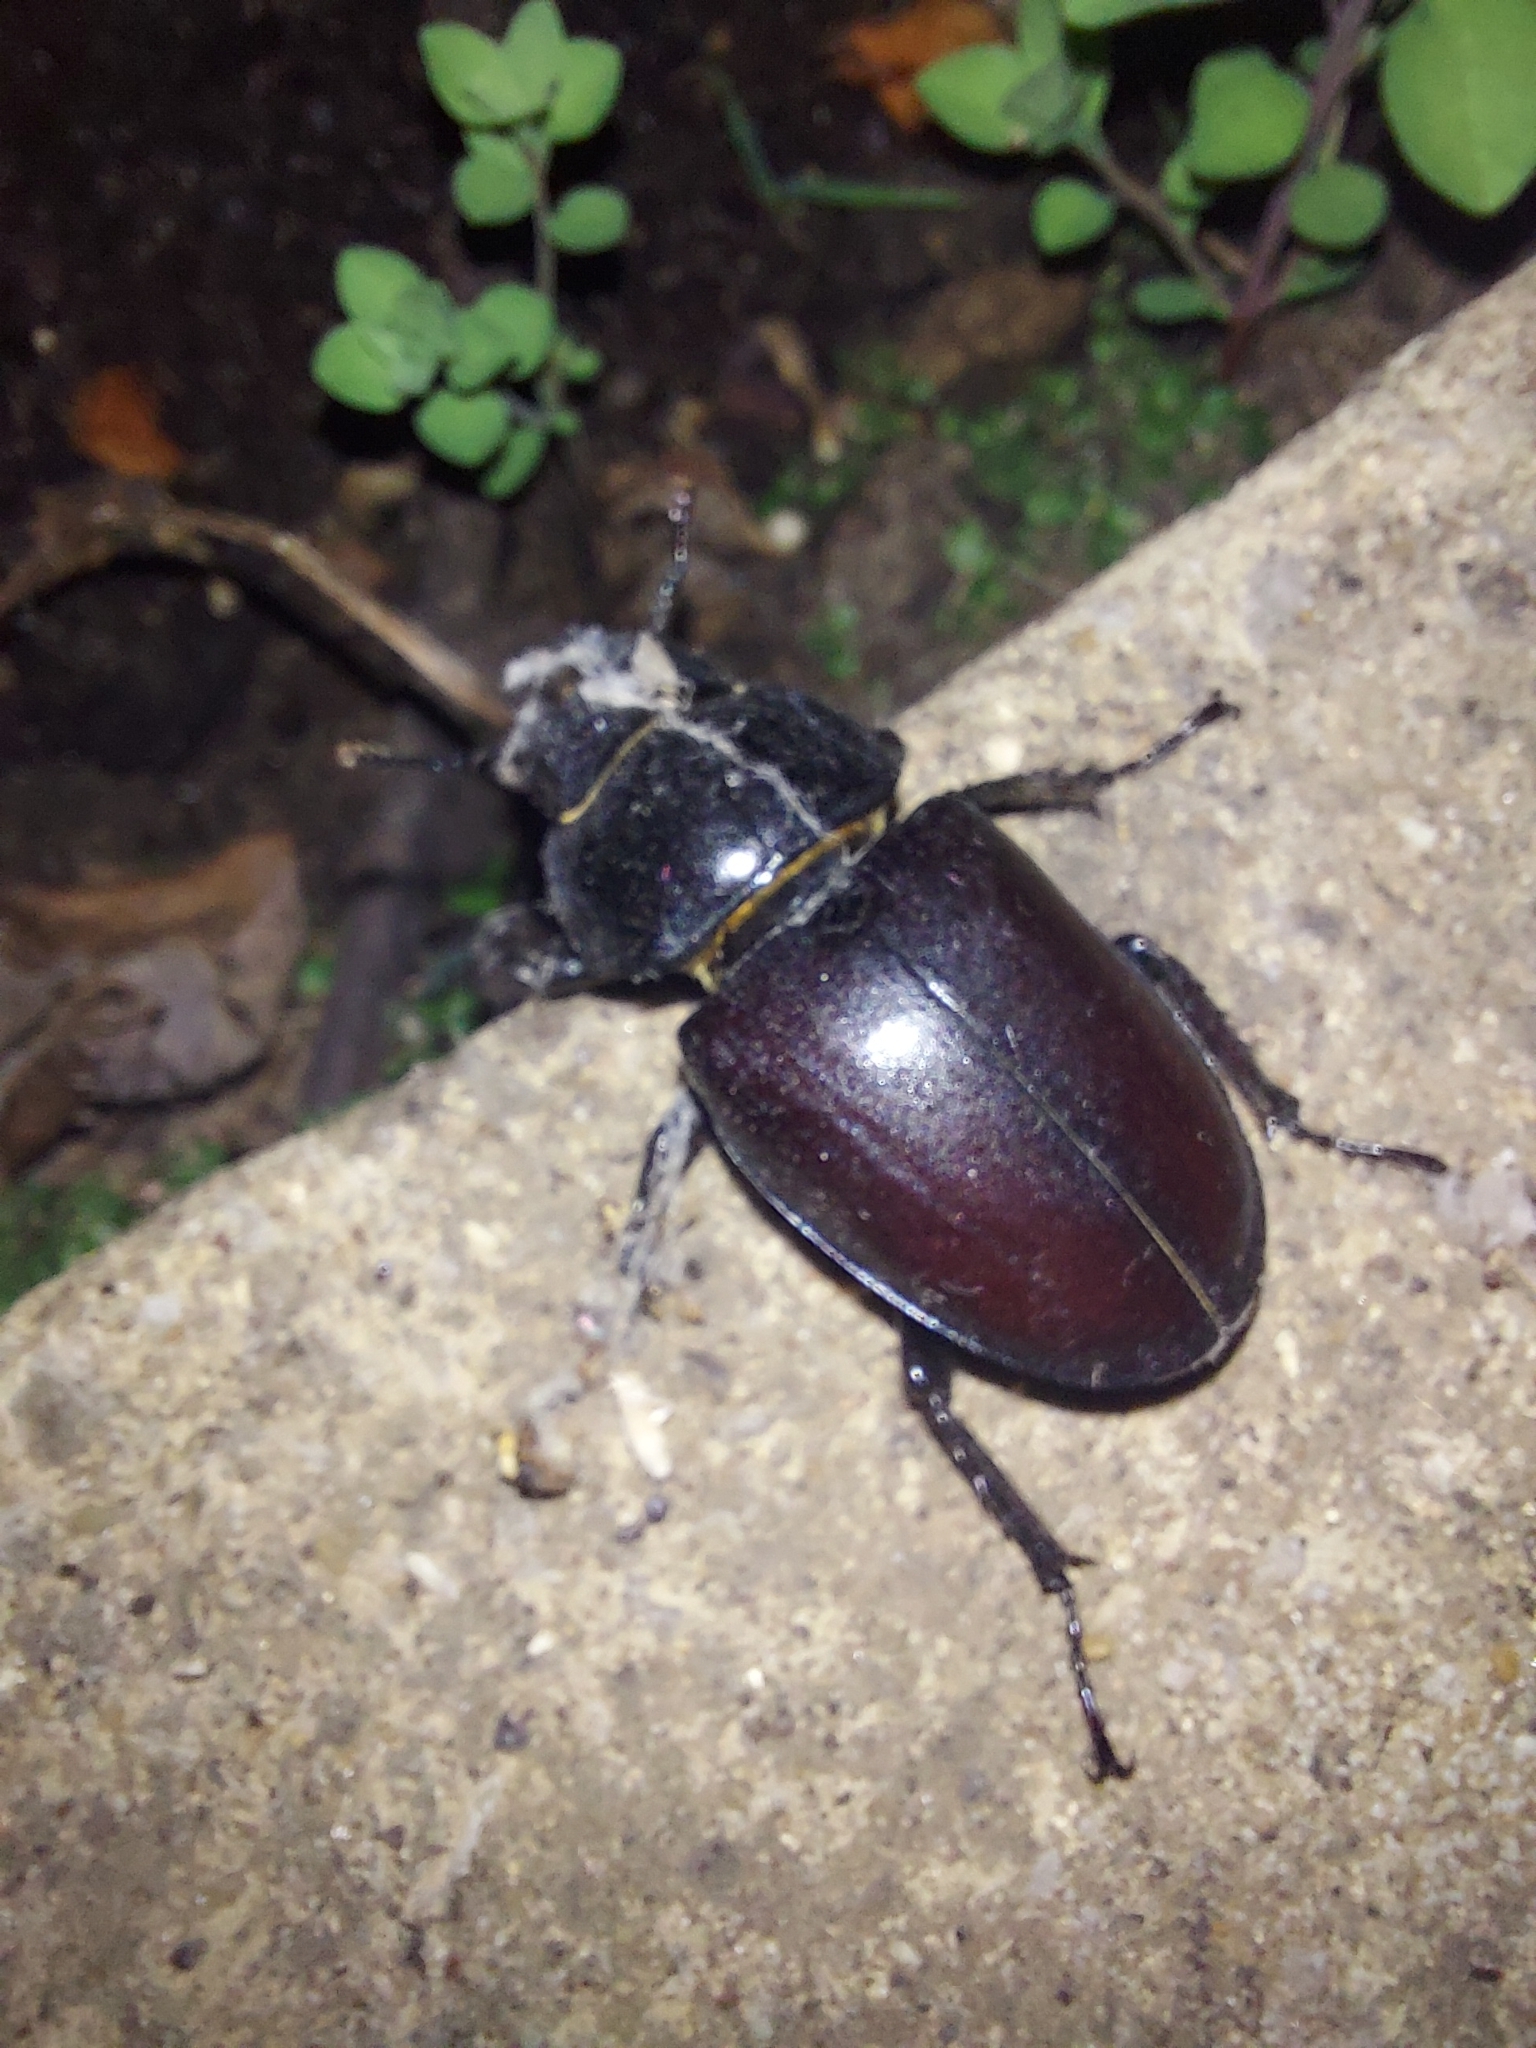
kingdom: Animalia
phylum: Arthropoda
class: Insecta
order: Coleoptera
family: Lucanidae
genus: Lucanus
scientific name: Lucanus cervus
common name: Stag beetle
